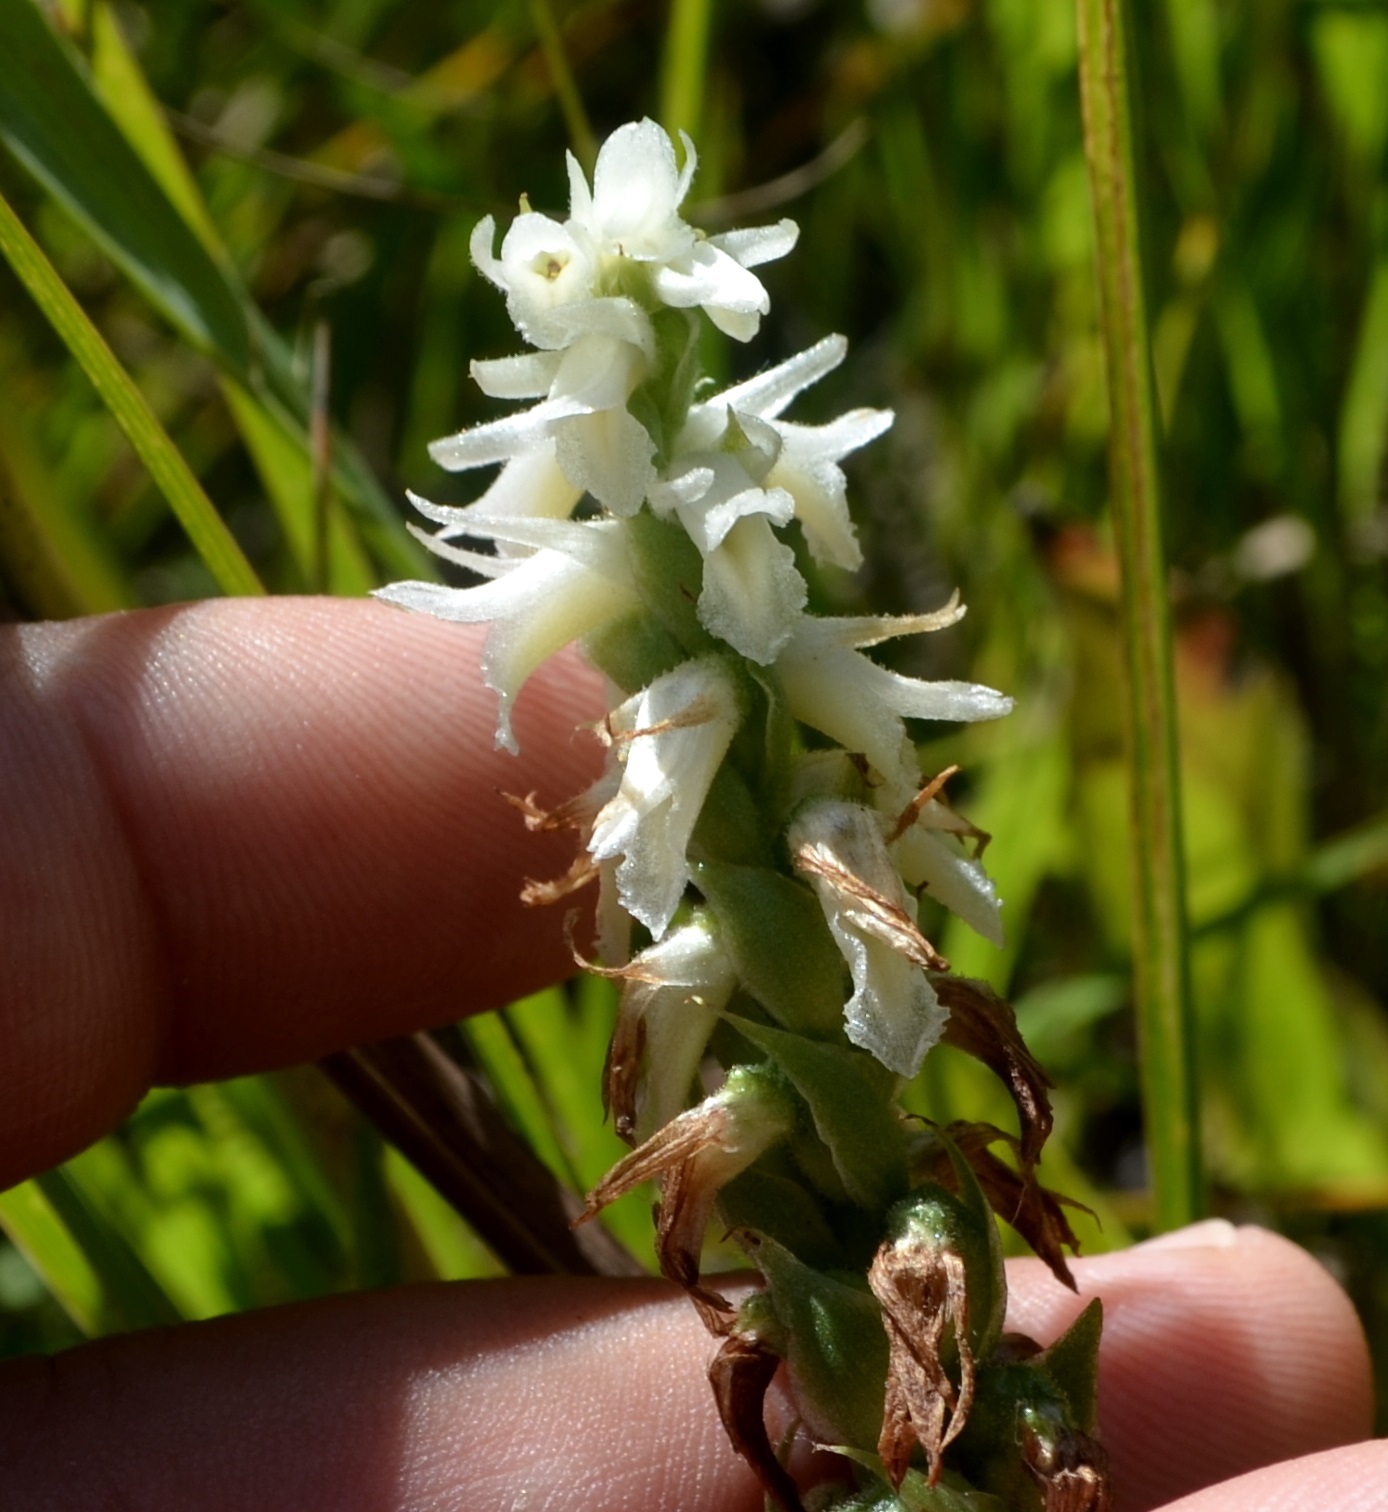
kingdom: Plantae
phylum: Tracheophyta
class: Liliopsida
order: Asparagales
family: Orchidaceae
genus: Spiranthes
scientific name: Spiranthes magnicamporum
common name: Great plains ladies'-tresses
